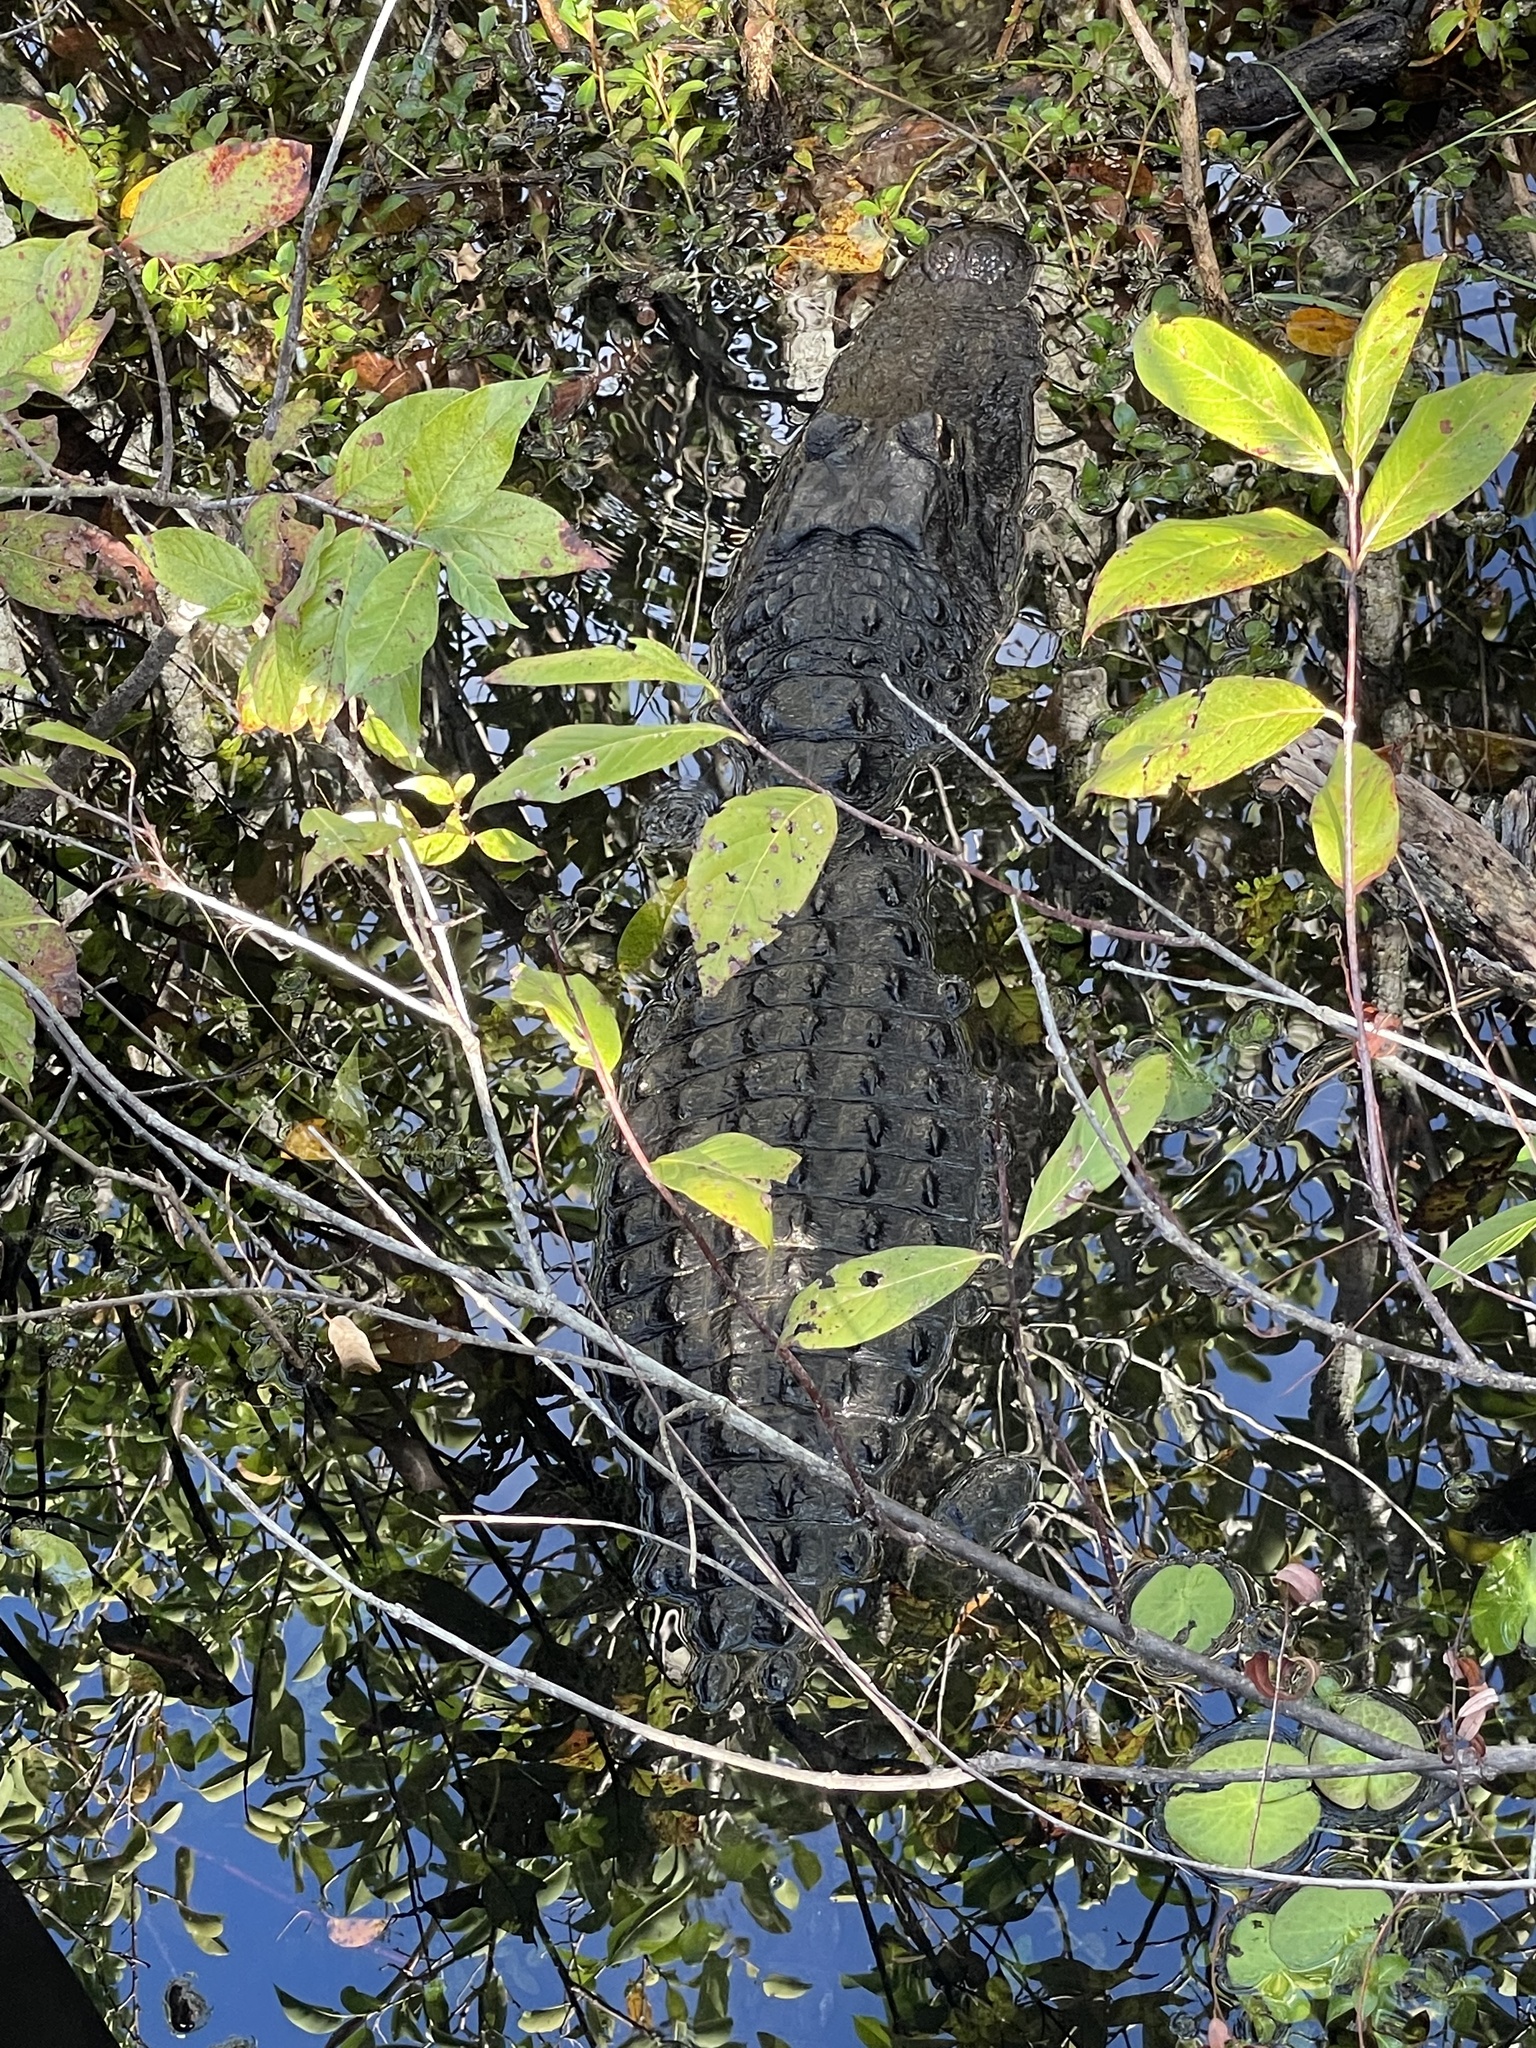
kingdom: Animalia
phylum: Chordata
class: Crocodylia
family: Alligatoridae
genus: Alligator
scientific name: Alligator mississippiensis
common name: American alligator
